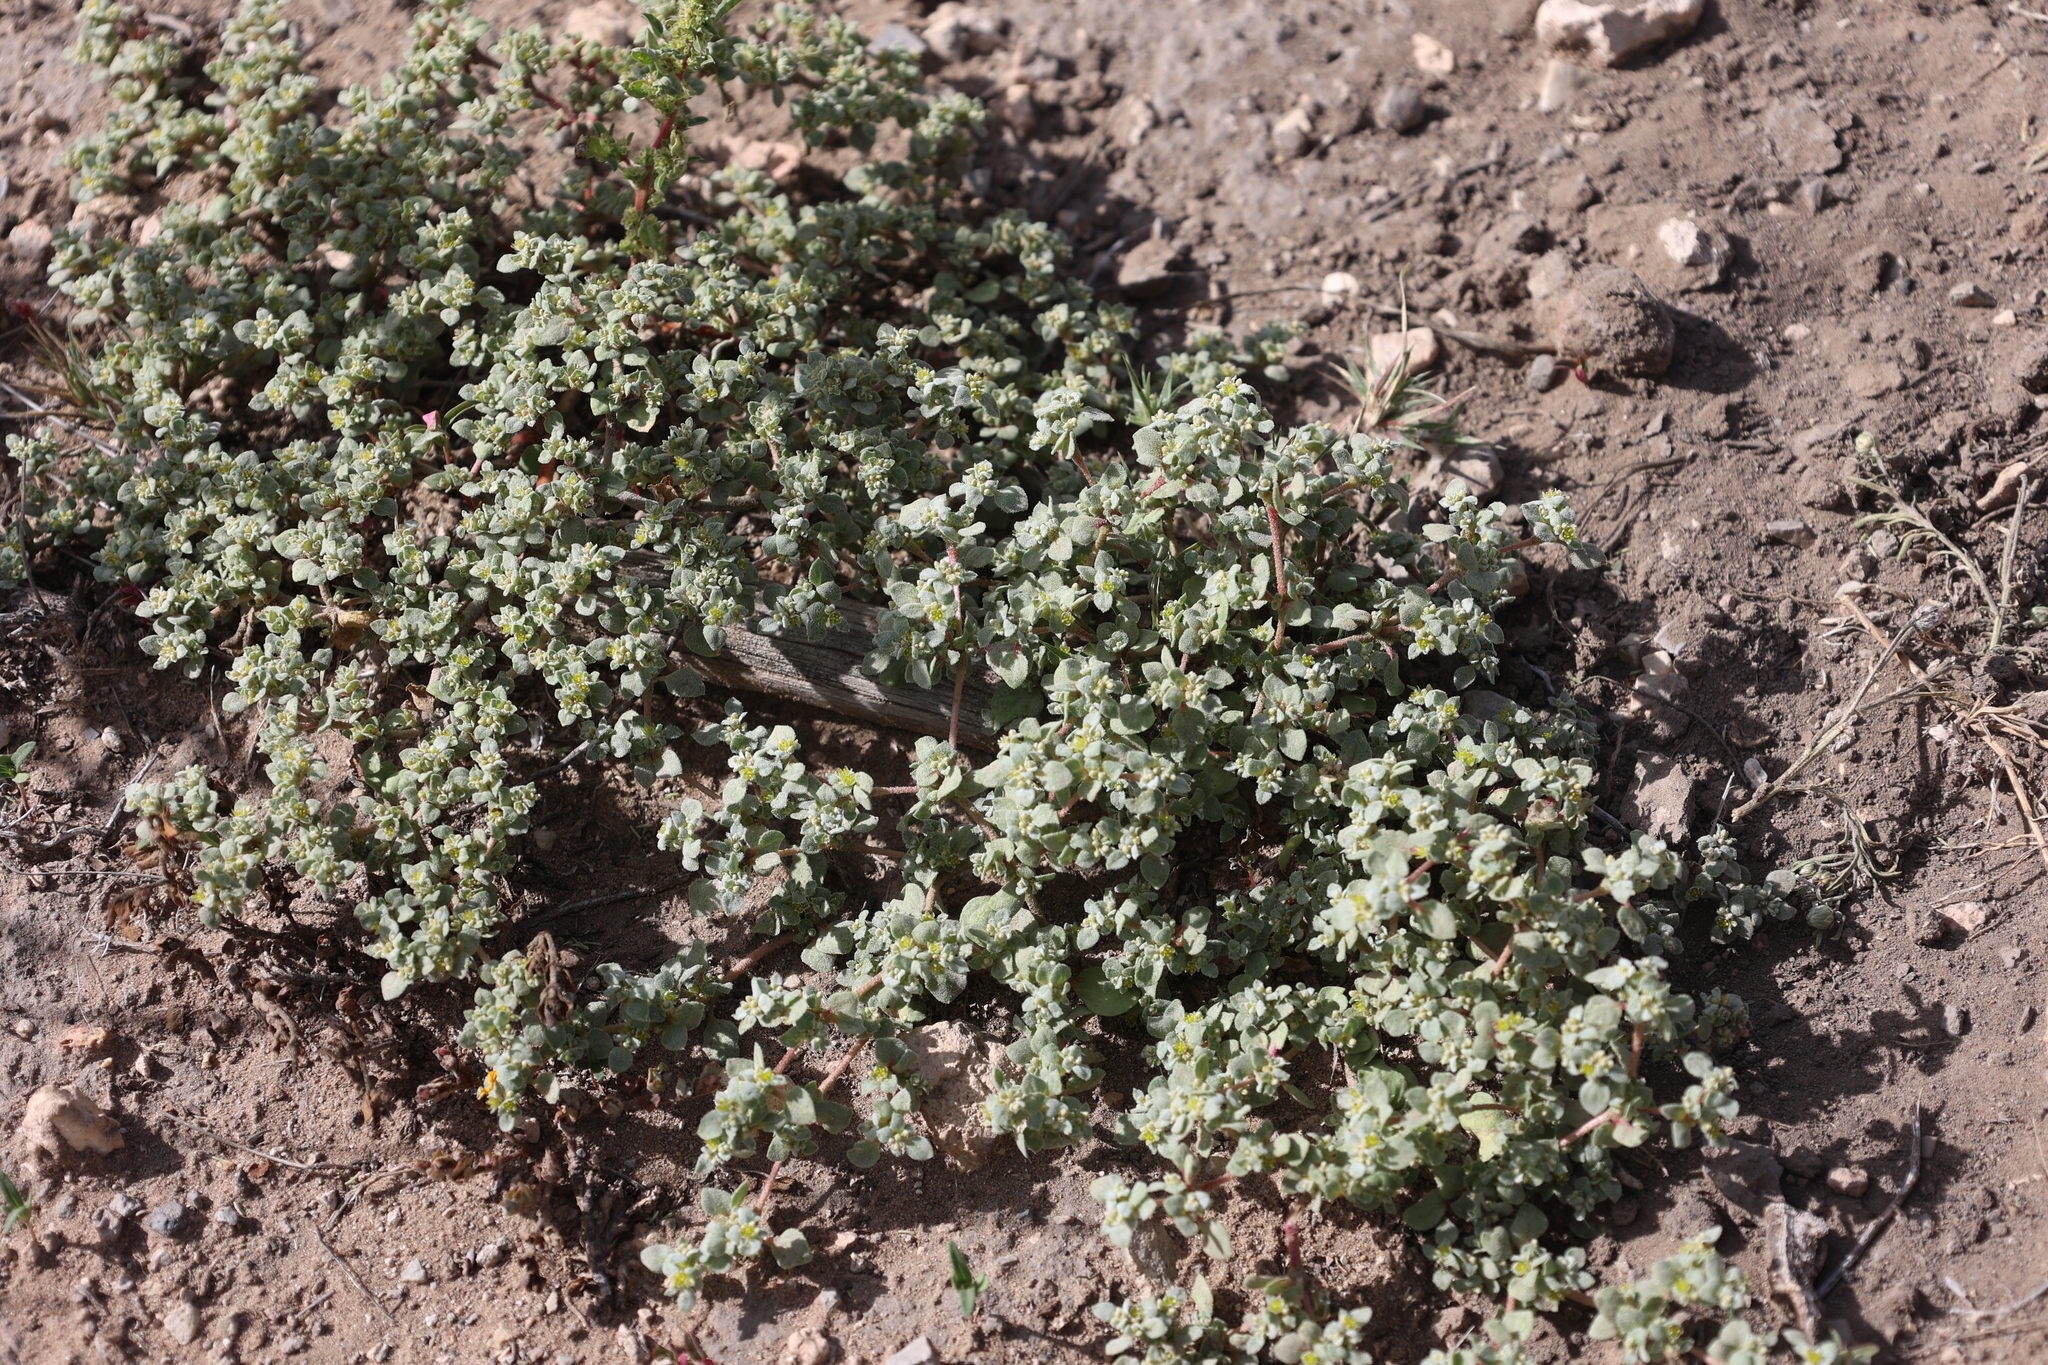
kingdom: Plantae
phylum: Tracheophyta
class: Magnoliopsida
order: Caryophyllales
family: Amaranthaceae
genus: Tidestromia
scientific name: Tidestromia lanuginosa
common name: Woolly tidestromia
